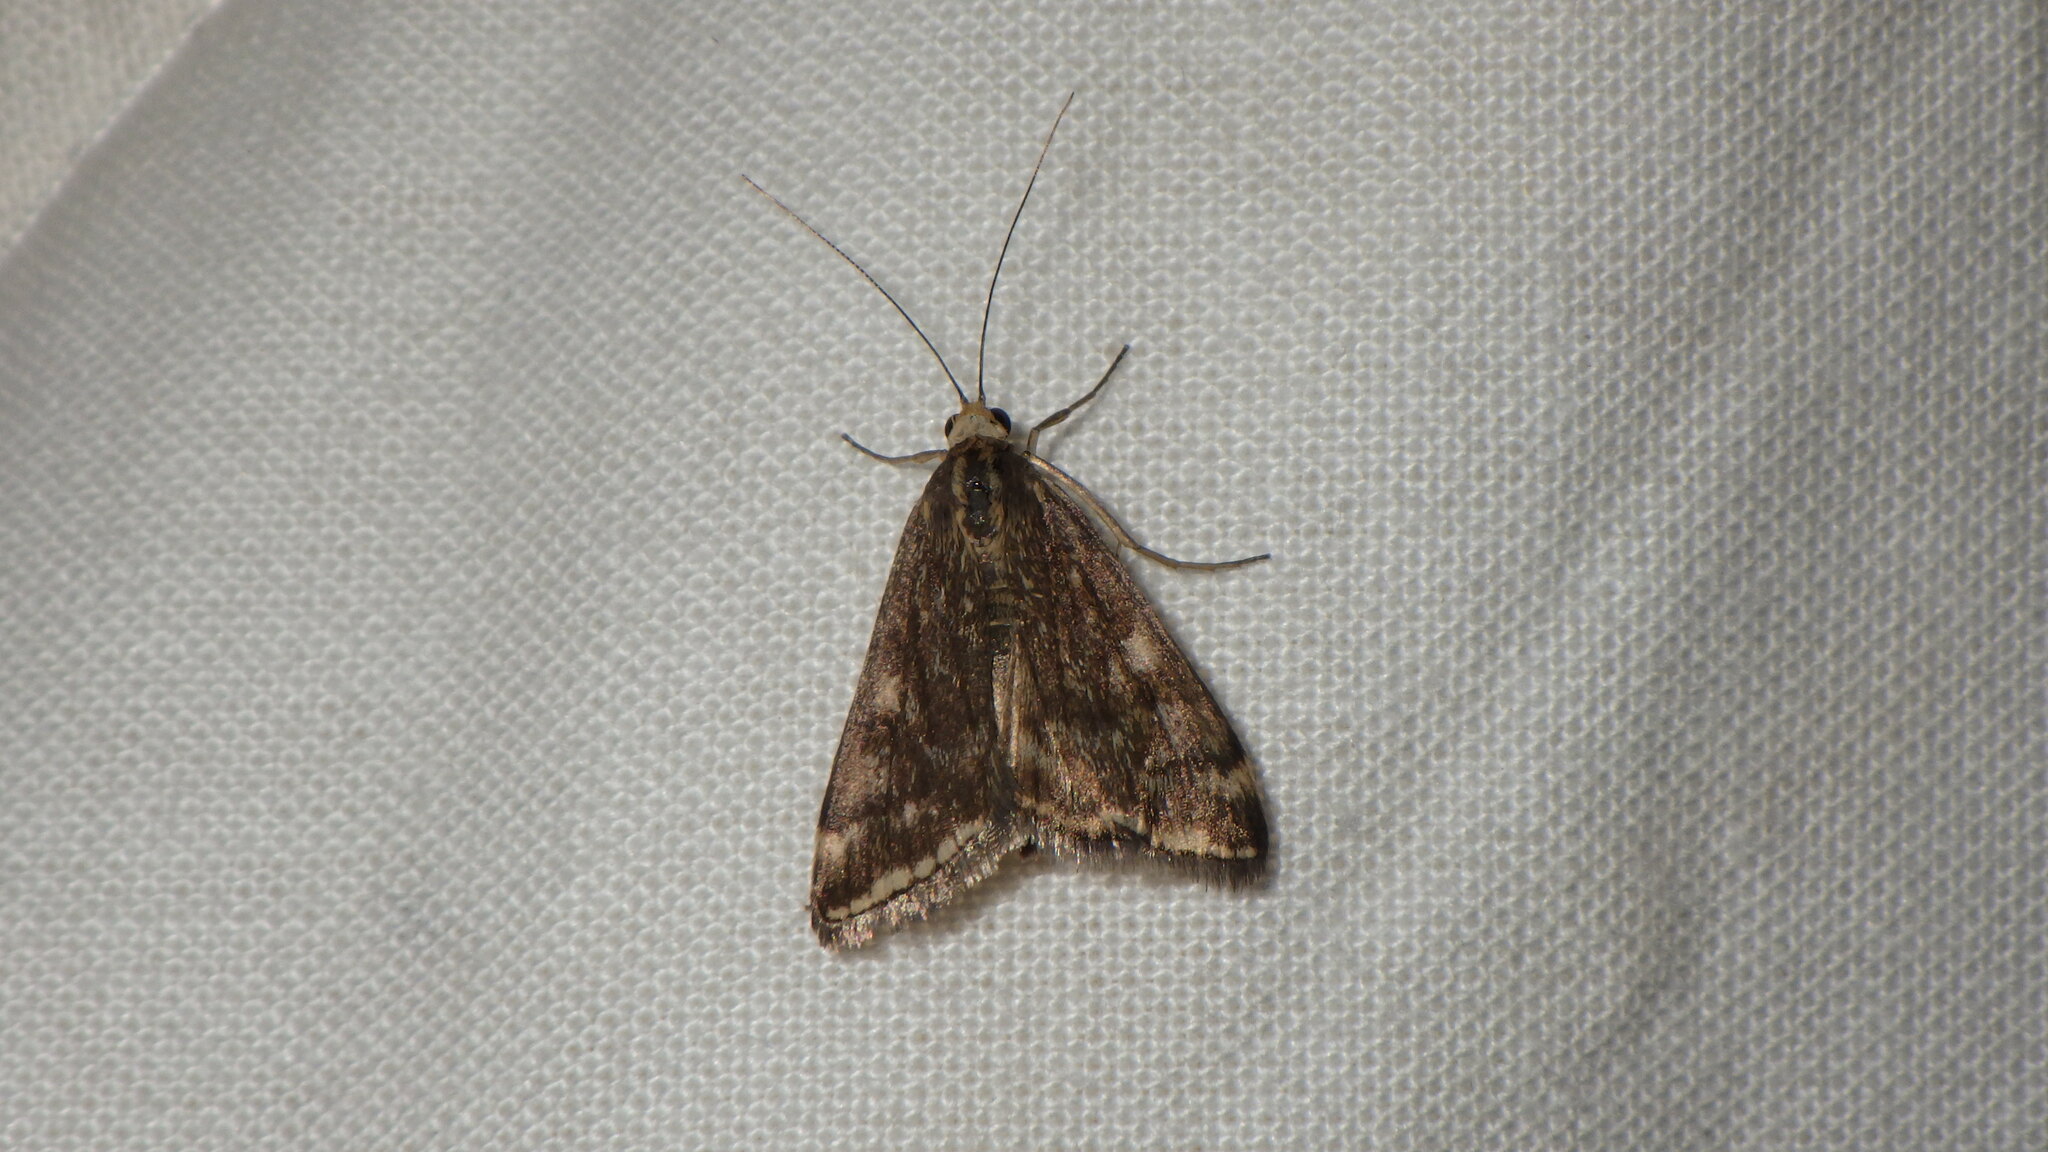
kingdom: Animalia
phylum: Arthropoda
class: Insecta
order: Lepidoptera
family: Crambidae
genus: Loxostege
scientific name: Loxostege sticticalis
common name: Crambid moth
